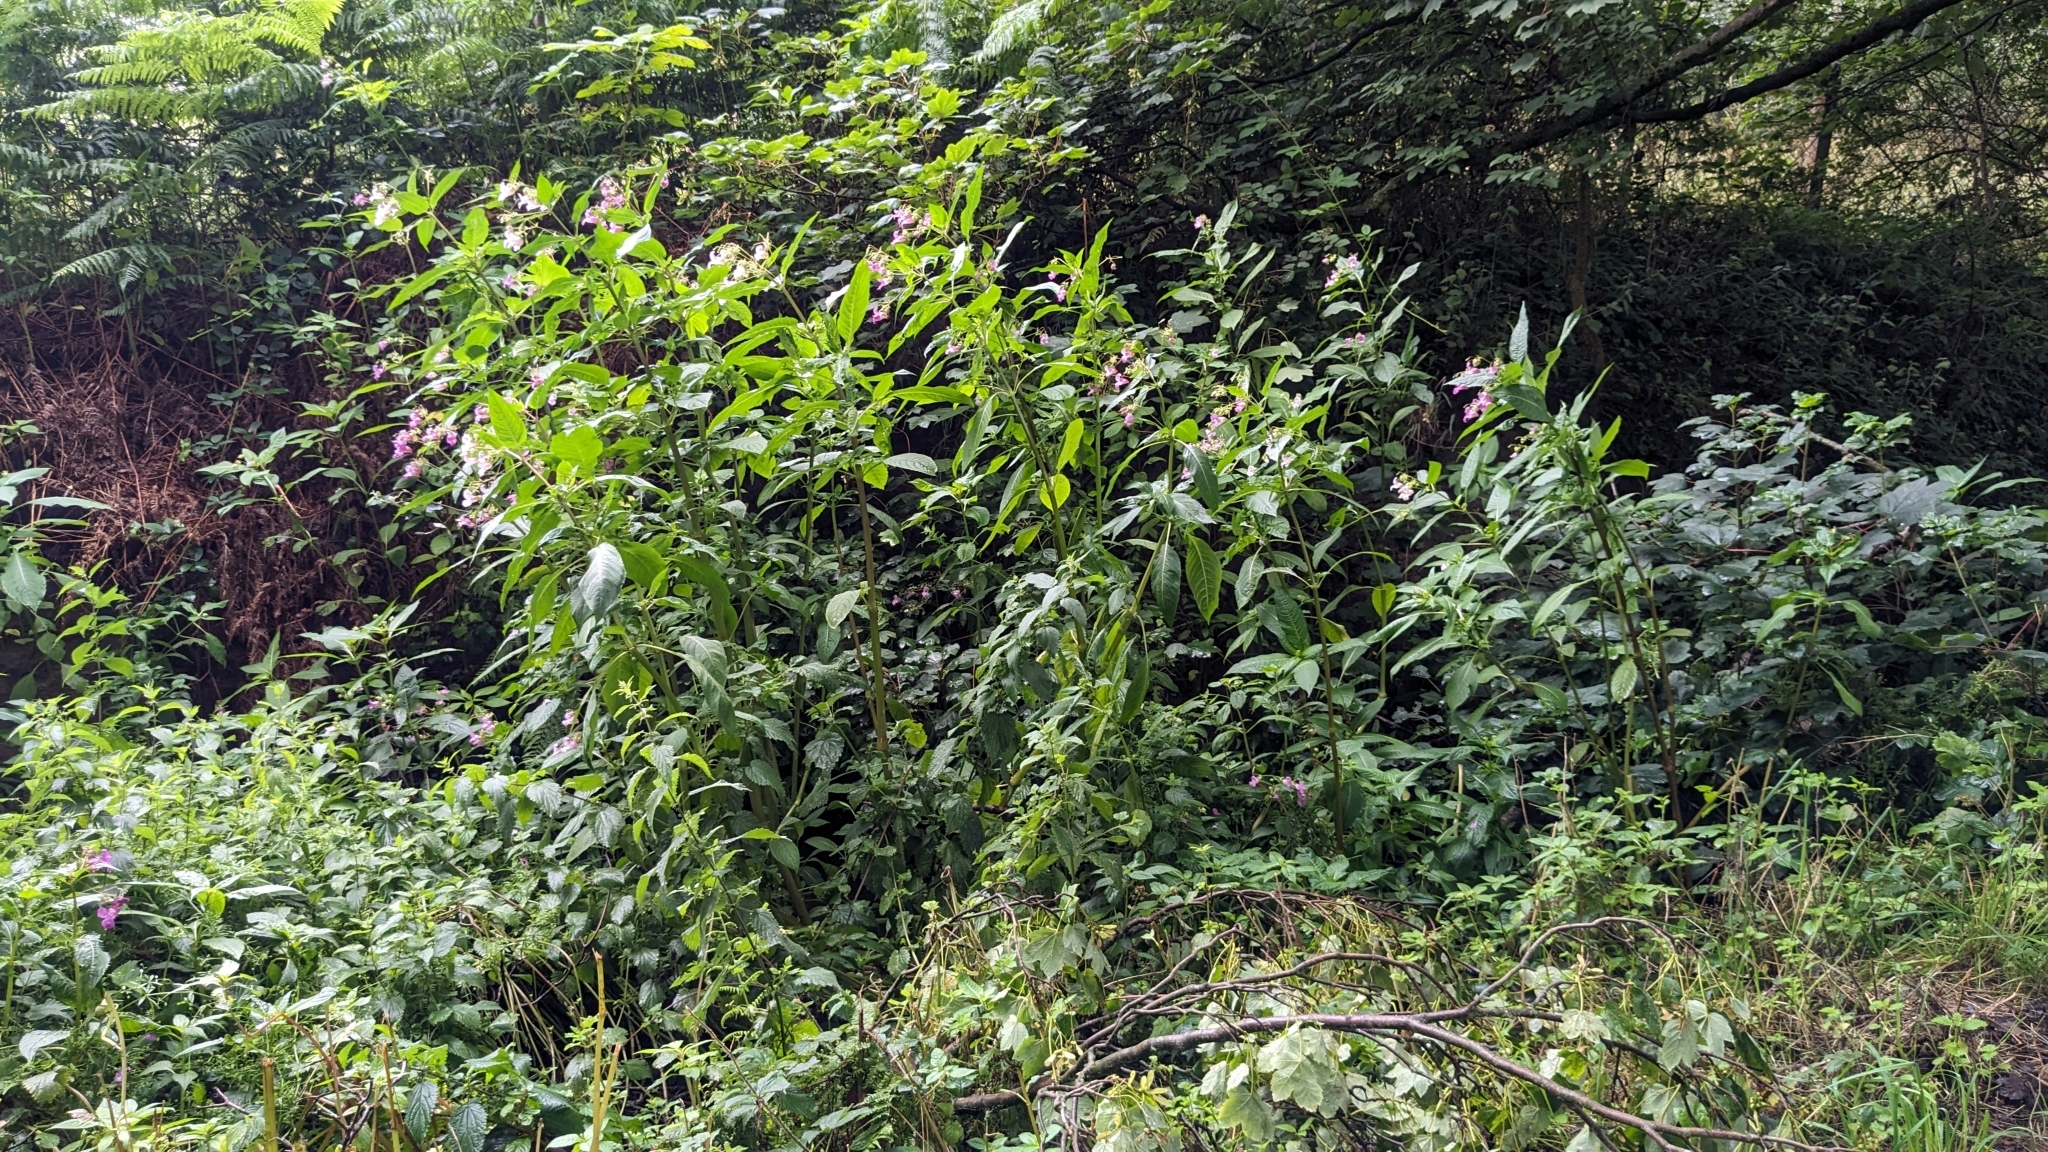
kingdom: Plantae
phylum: Tracheophyta
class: Magnoliopsida
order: Ericales
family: Balsaminaceae
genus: Impatiens
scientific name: Impatiens glandulifera
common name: Himalayan balsam
